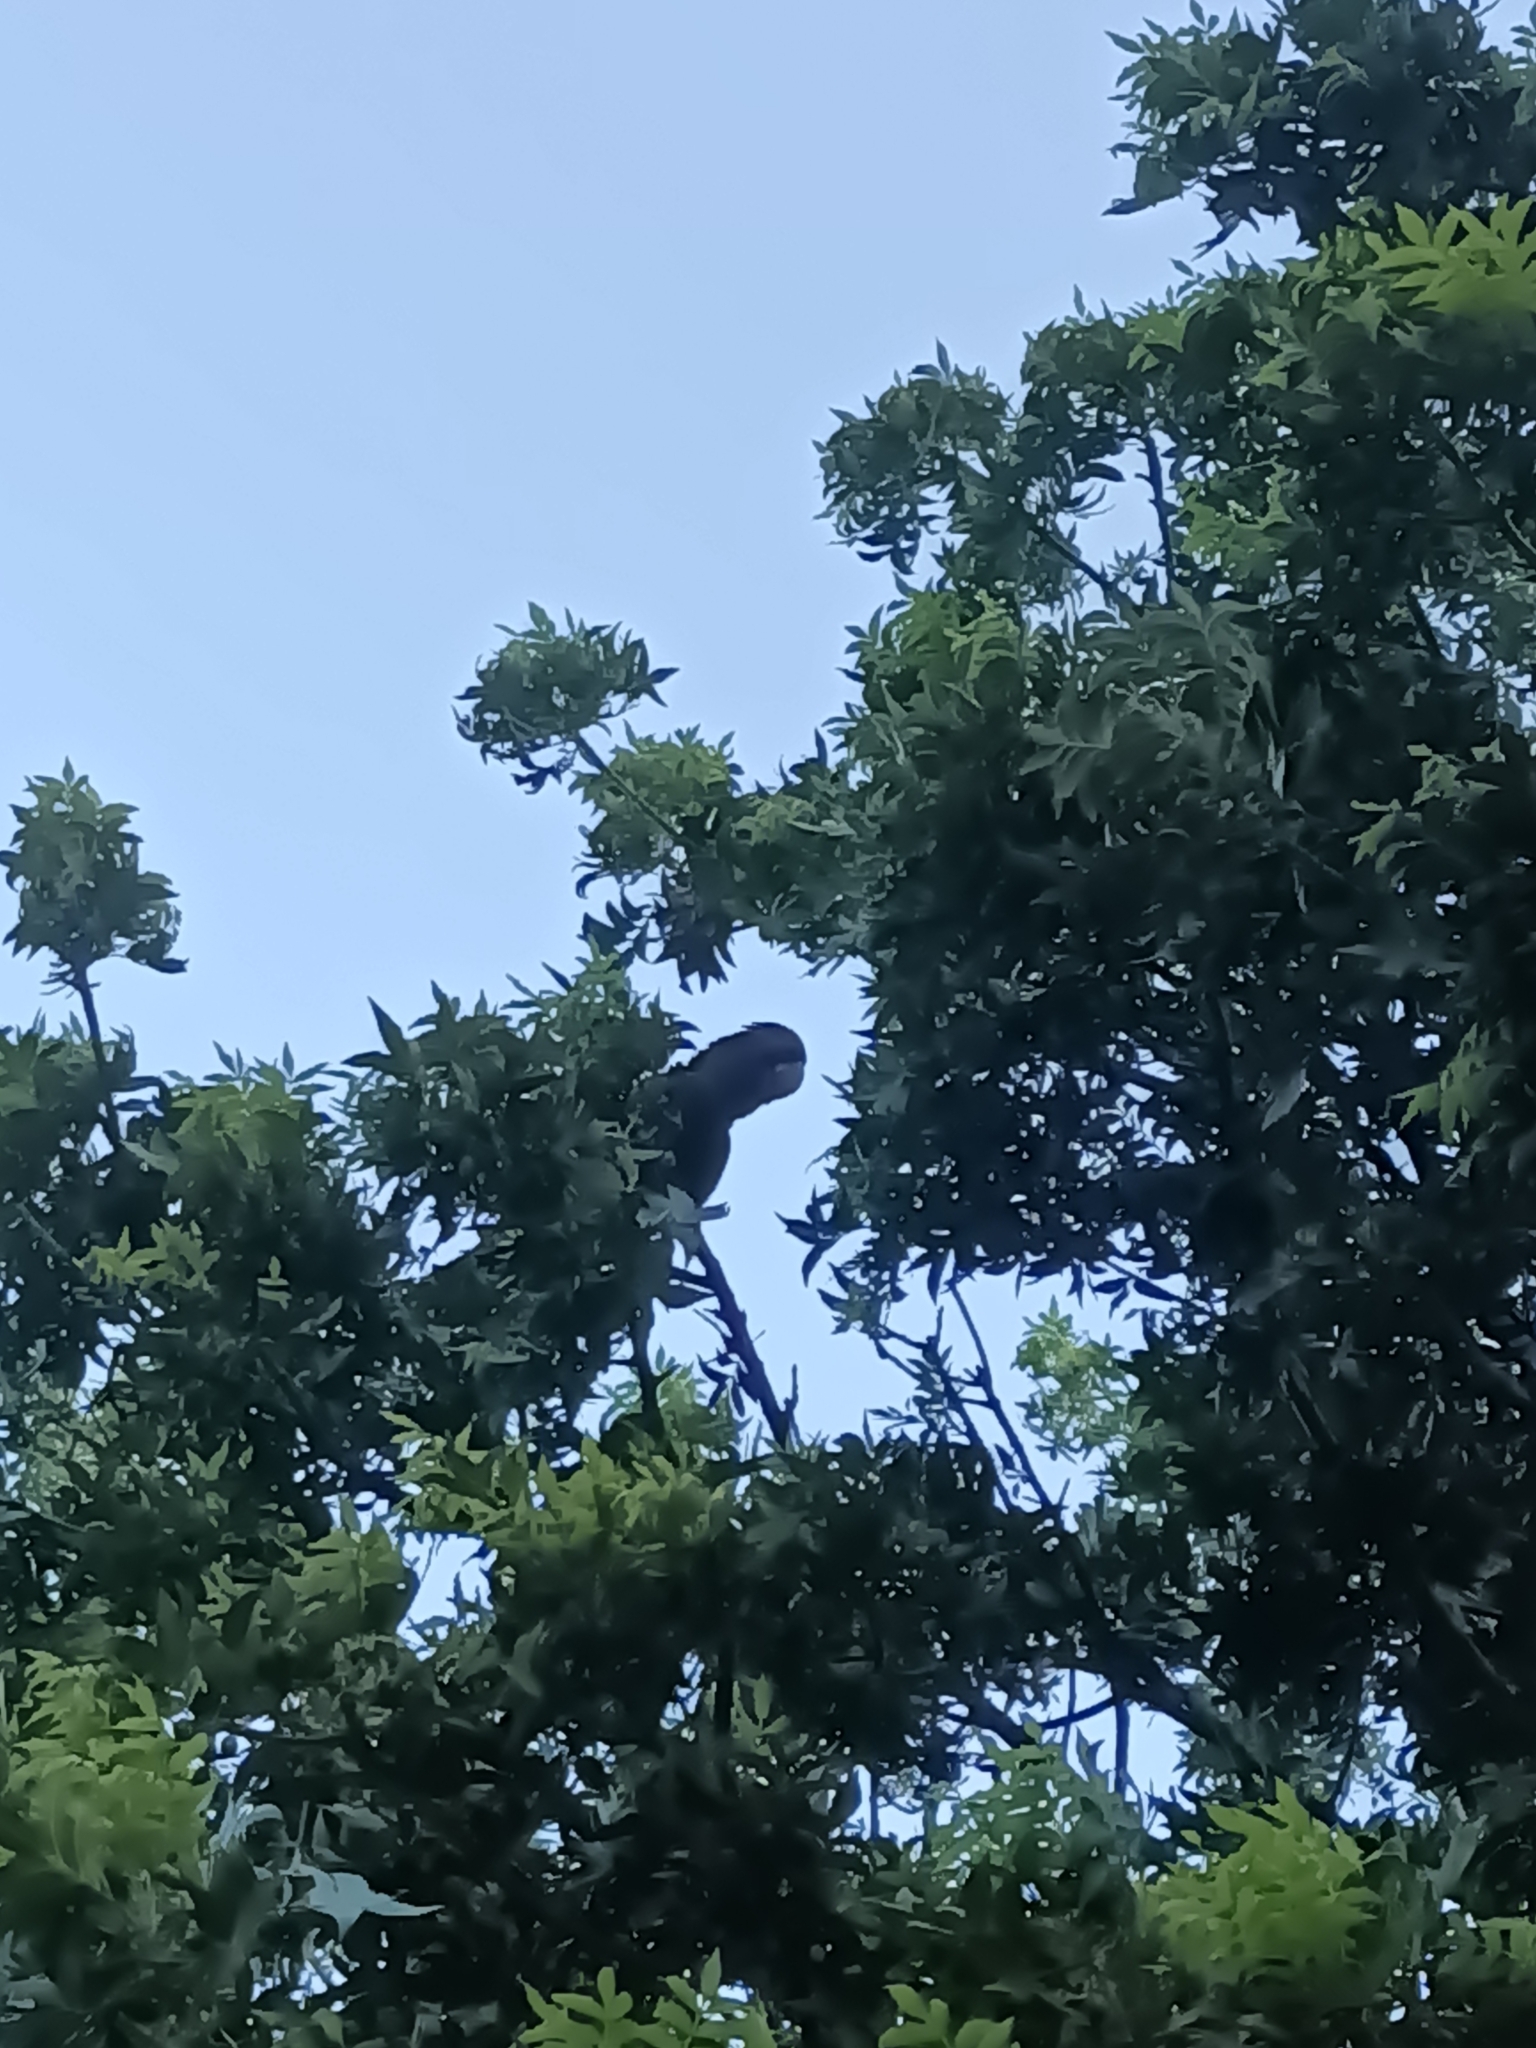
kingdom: Animalia
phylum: Chordata
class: Aves
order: Psittaciformes
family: Psittacidae
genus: Calyptorhynchus
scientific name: Calyptorhynchus banksii
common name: Red-tailed black cockatoo
